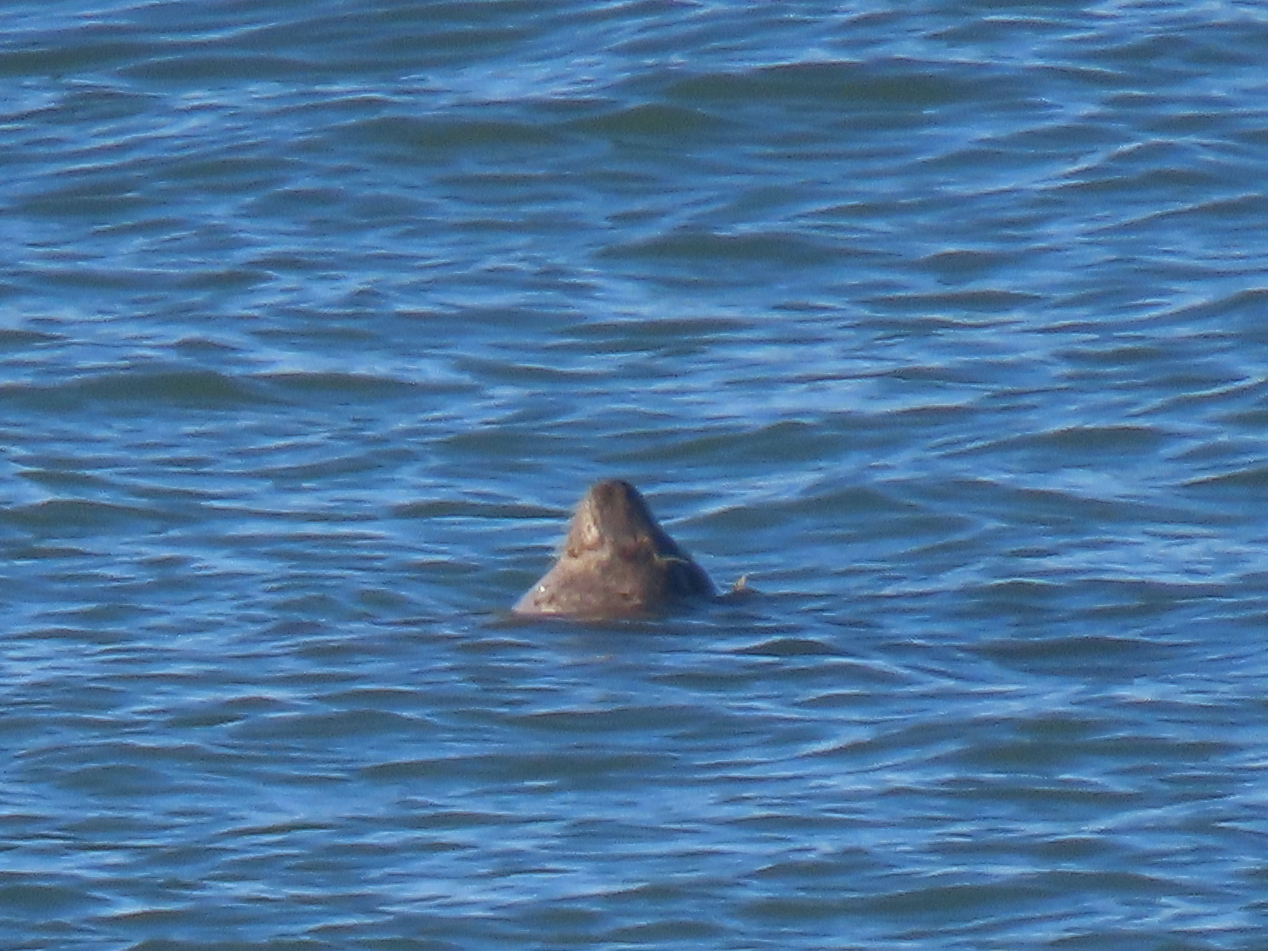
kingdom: Animalia
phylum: Chordata
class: Mammalia
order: Carnivora
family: Phocidae
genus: Phoca
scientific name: Phoca vitulina
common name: Harbor seal
